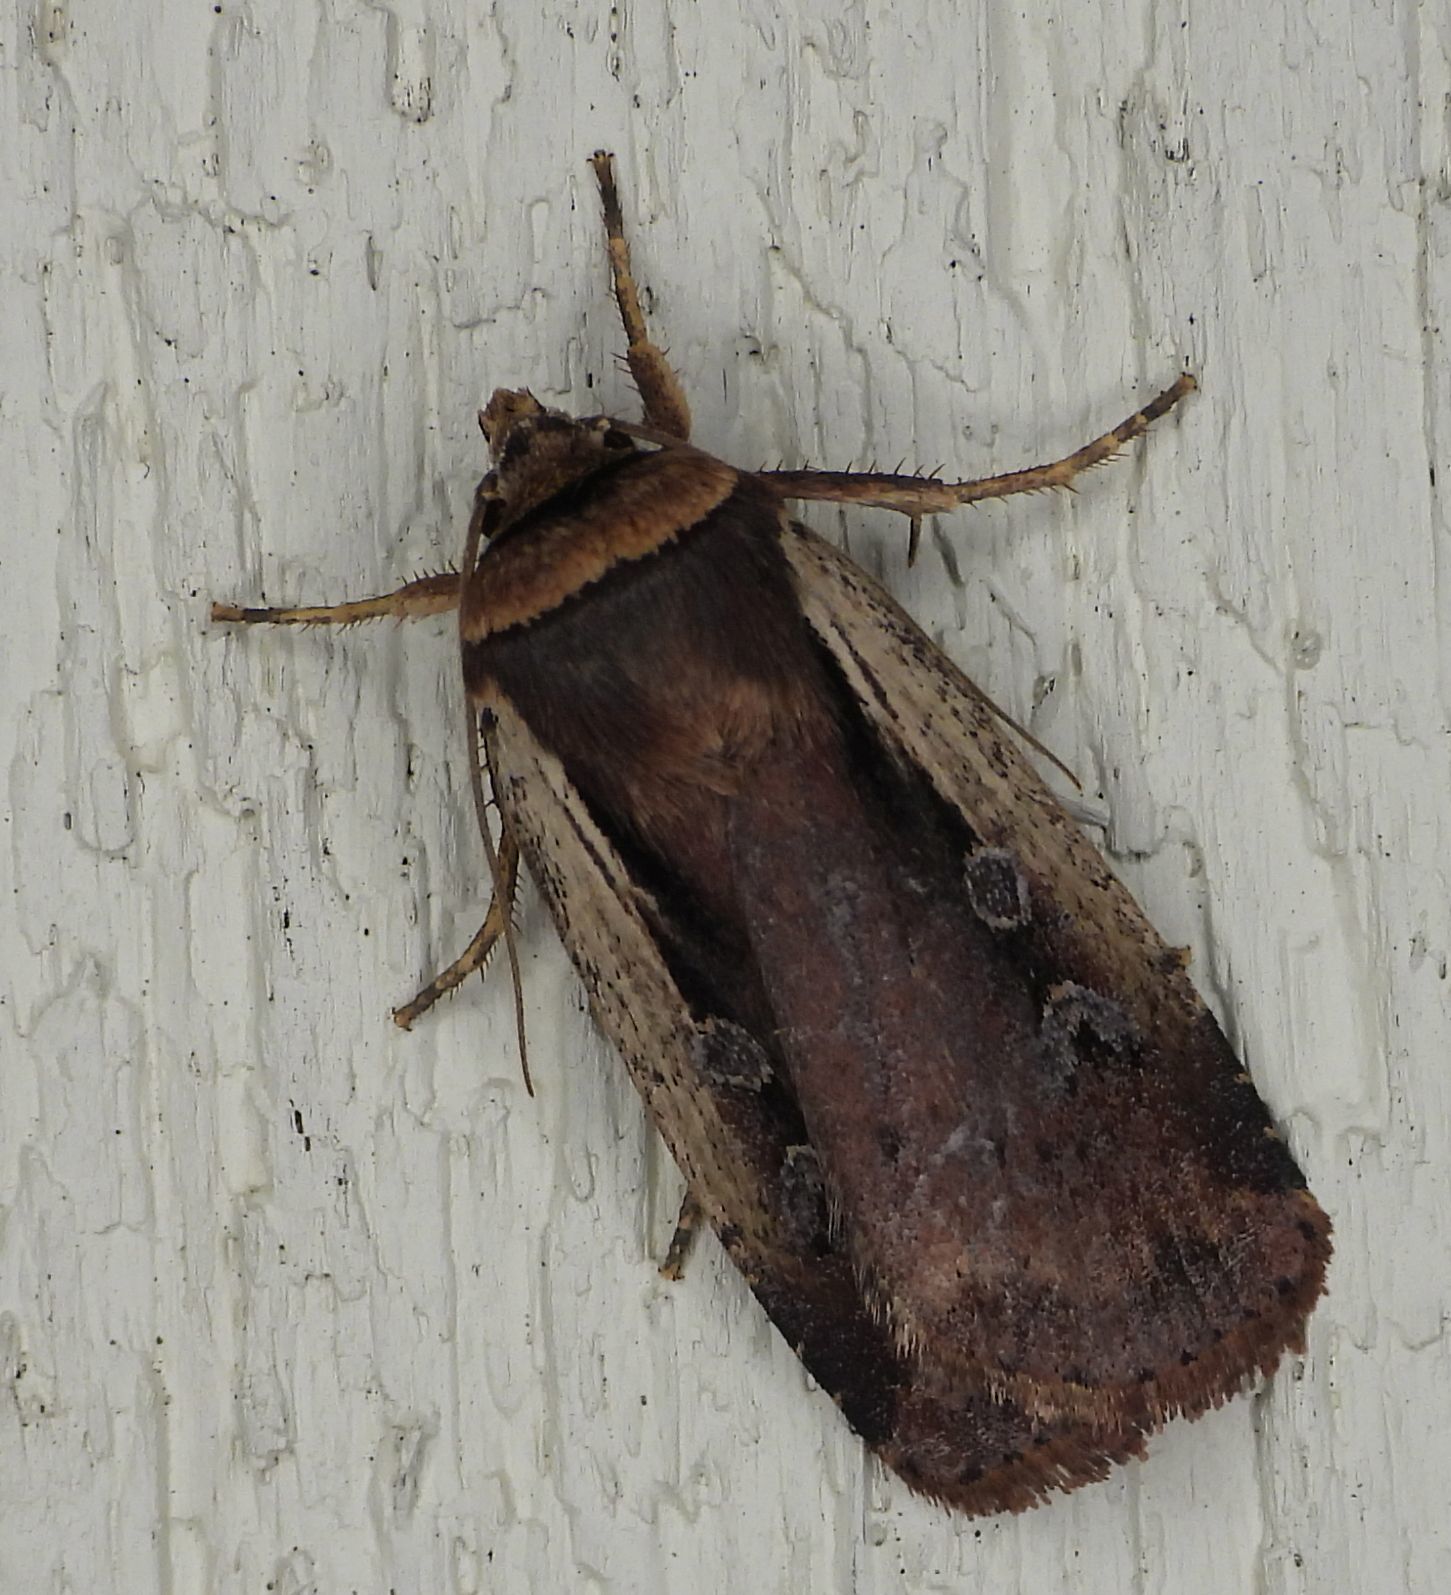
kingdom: Animalia
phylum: Arthropoda
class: Insecta
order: Lepidoptera
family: Noctuidae
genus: Ochropleura
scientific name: Ochropleura implecta
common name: Flame-shouldered dart
